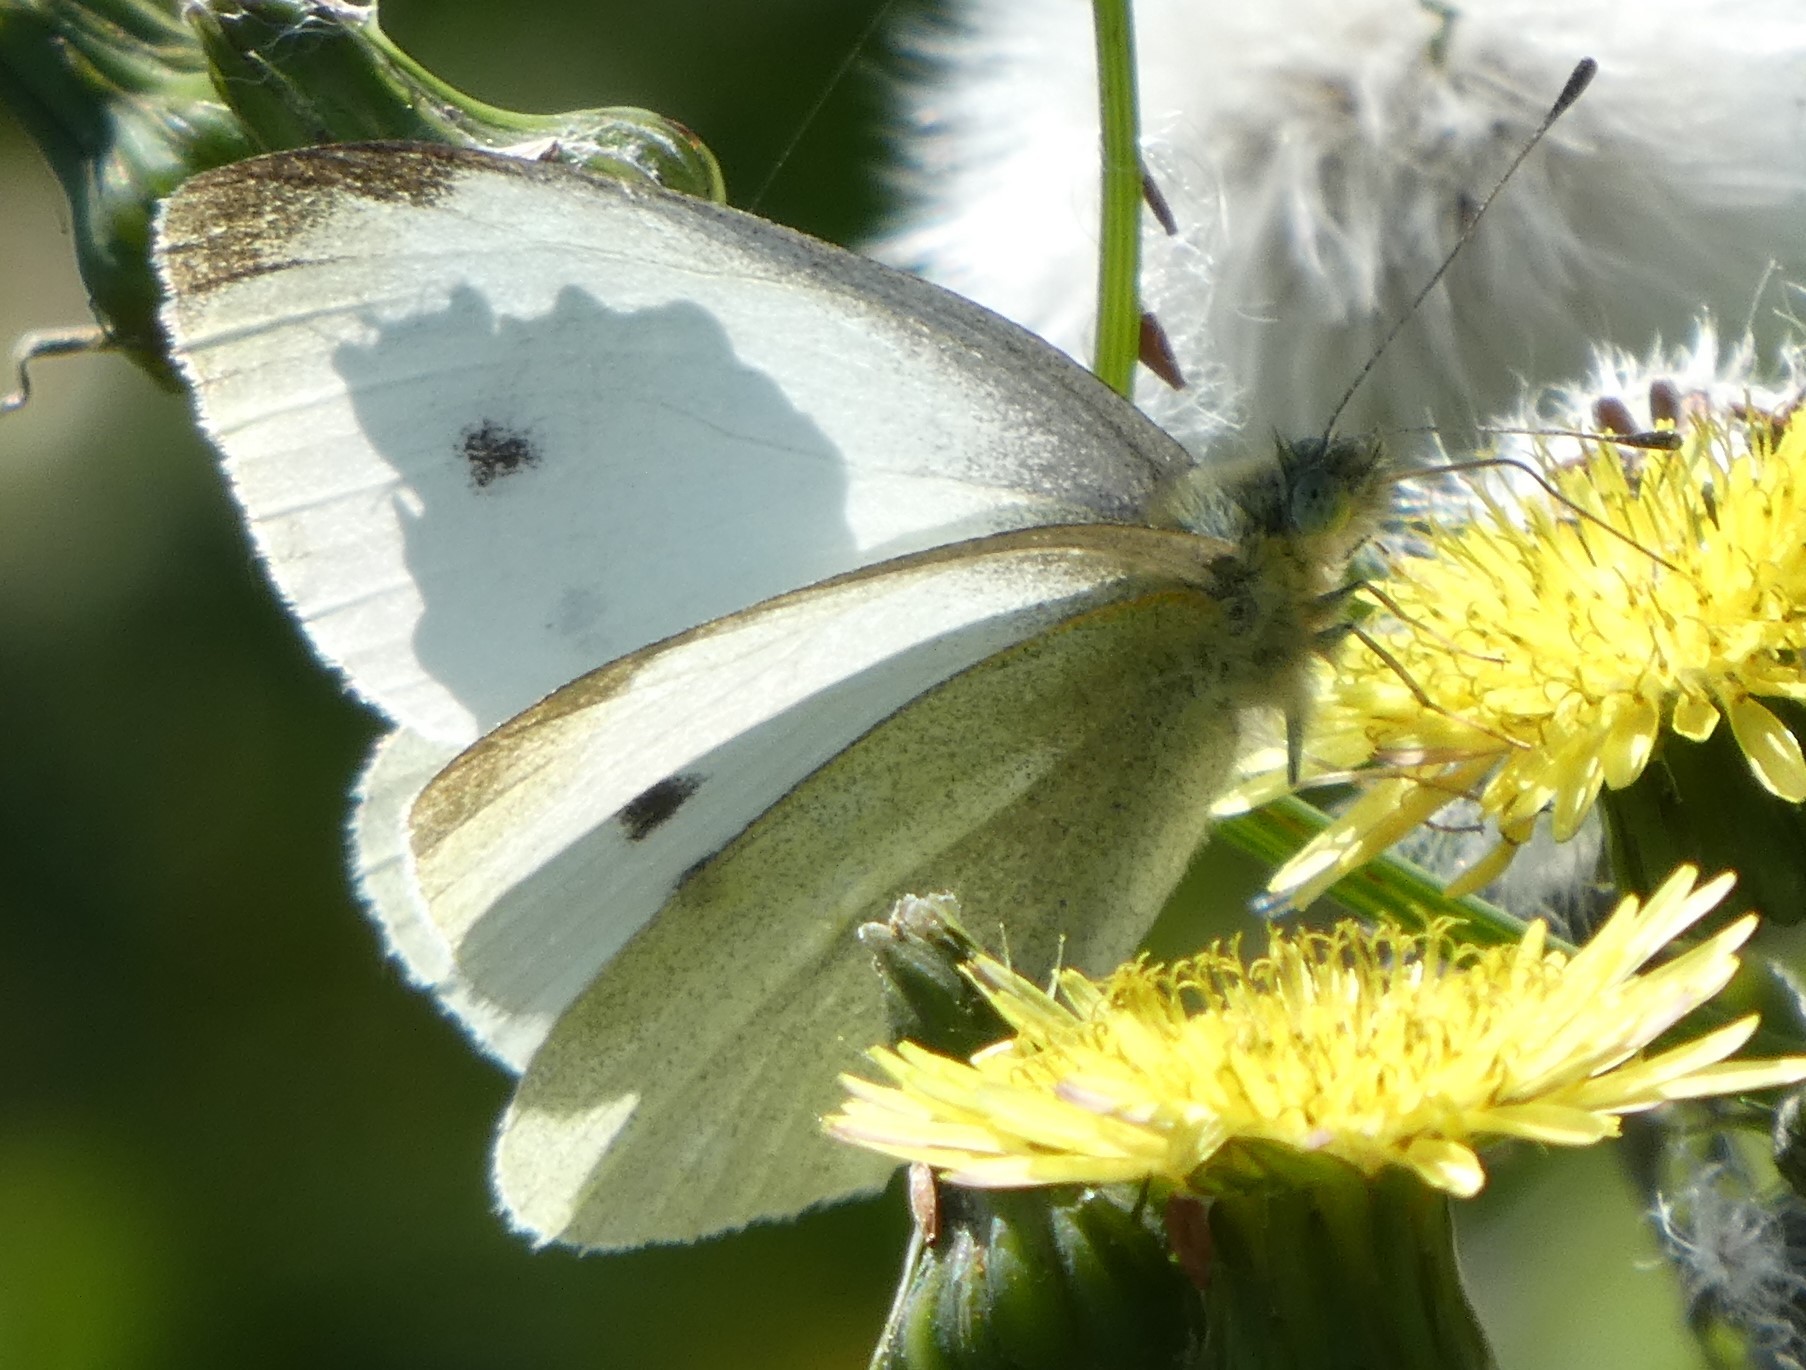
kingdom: Animalia
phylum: Arthropoda
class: Insecta
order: Lepidoptera
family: Pieridae
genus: Pieris
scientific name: Pieris rapae
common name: Small white
